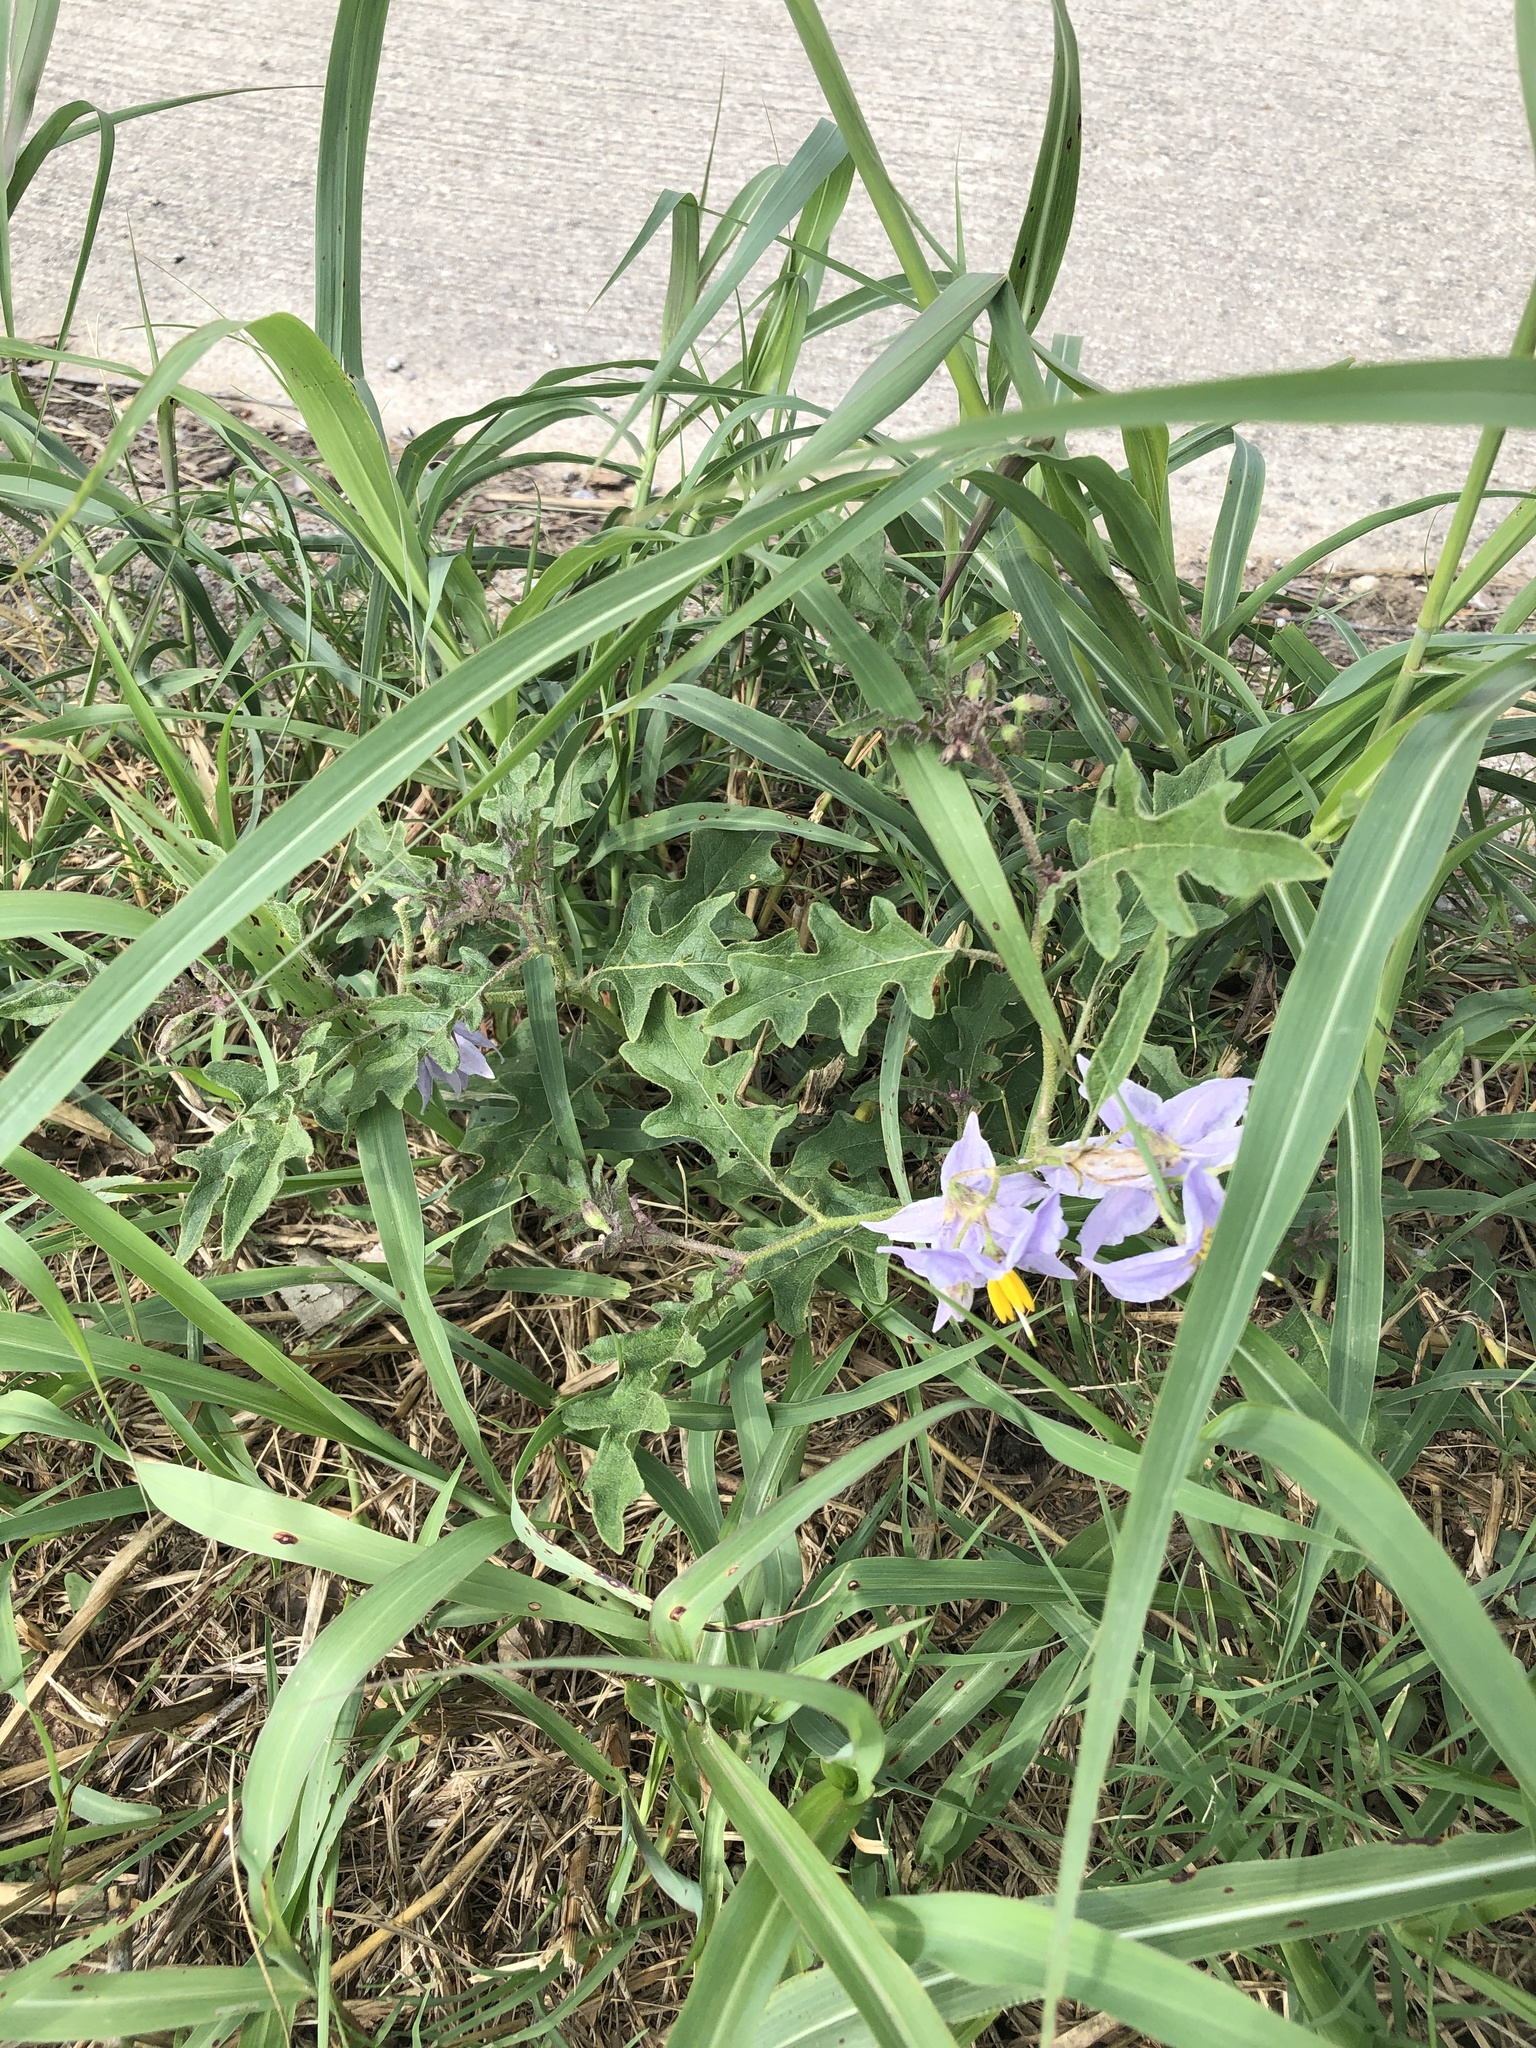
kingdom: Plantae
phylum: Tracheophyta
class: Magnoliopsida
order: Solanales
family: Solanaceae
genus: Solanum
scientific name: Solanum dimidiatum
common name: Carolina horse-nettle
